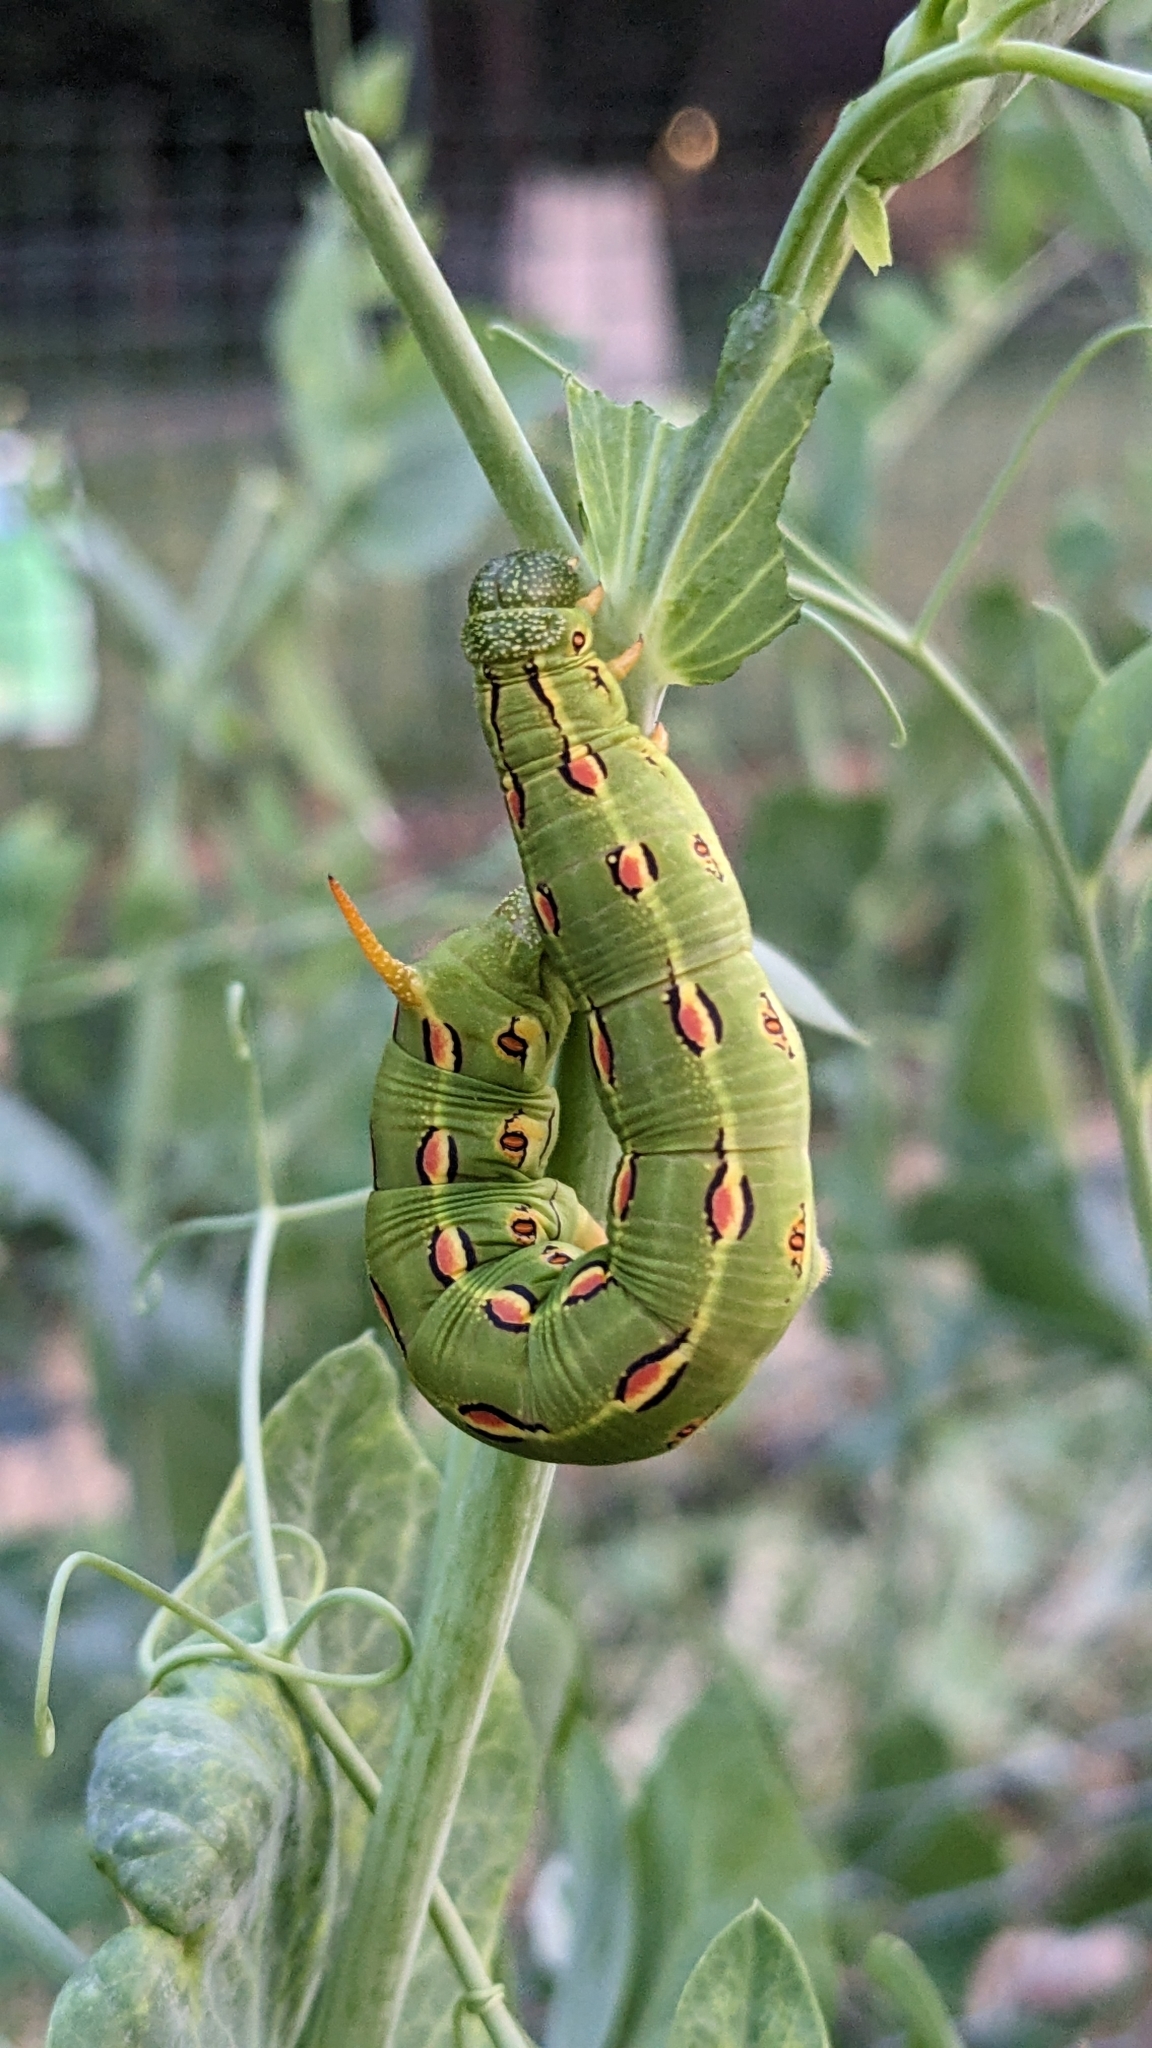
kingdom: Animalia
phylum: Arthropoda
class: Insecta
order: Lepidoptera
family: Sphingidae
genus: Hyles
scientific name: Hyles lineata
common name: White-lined sphinx
